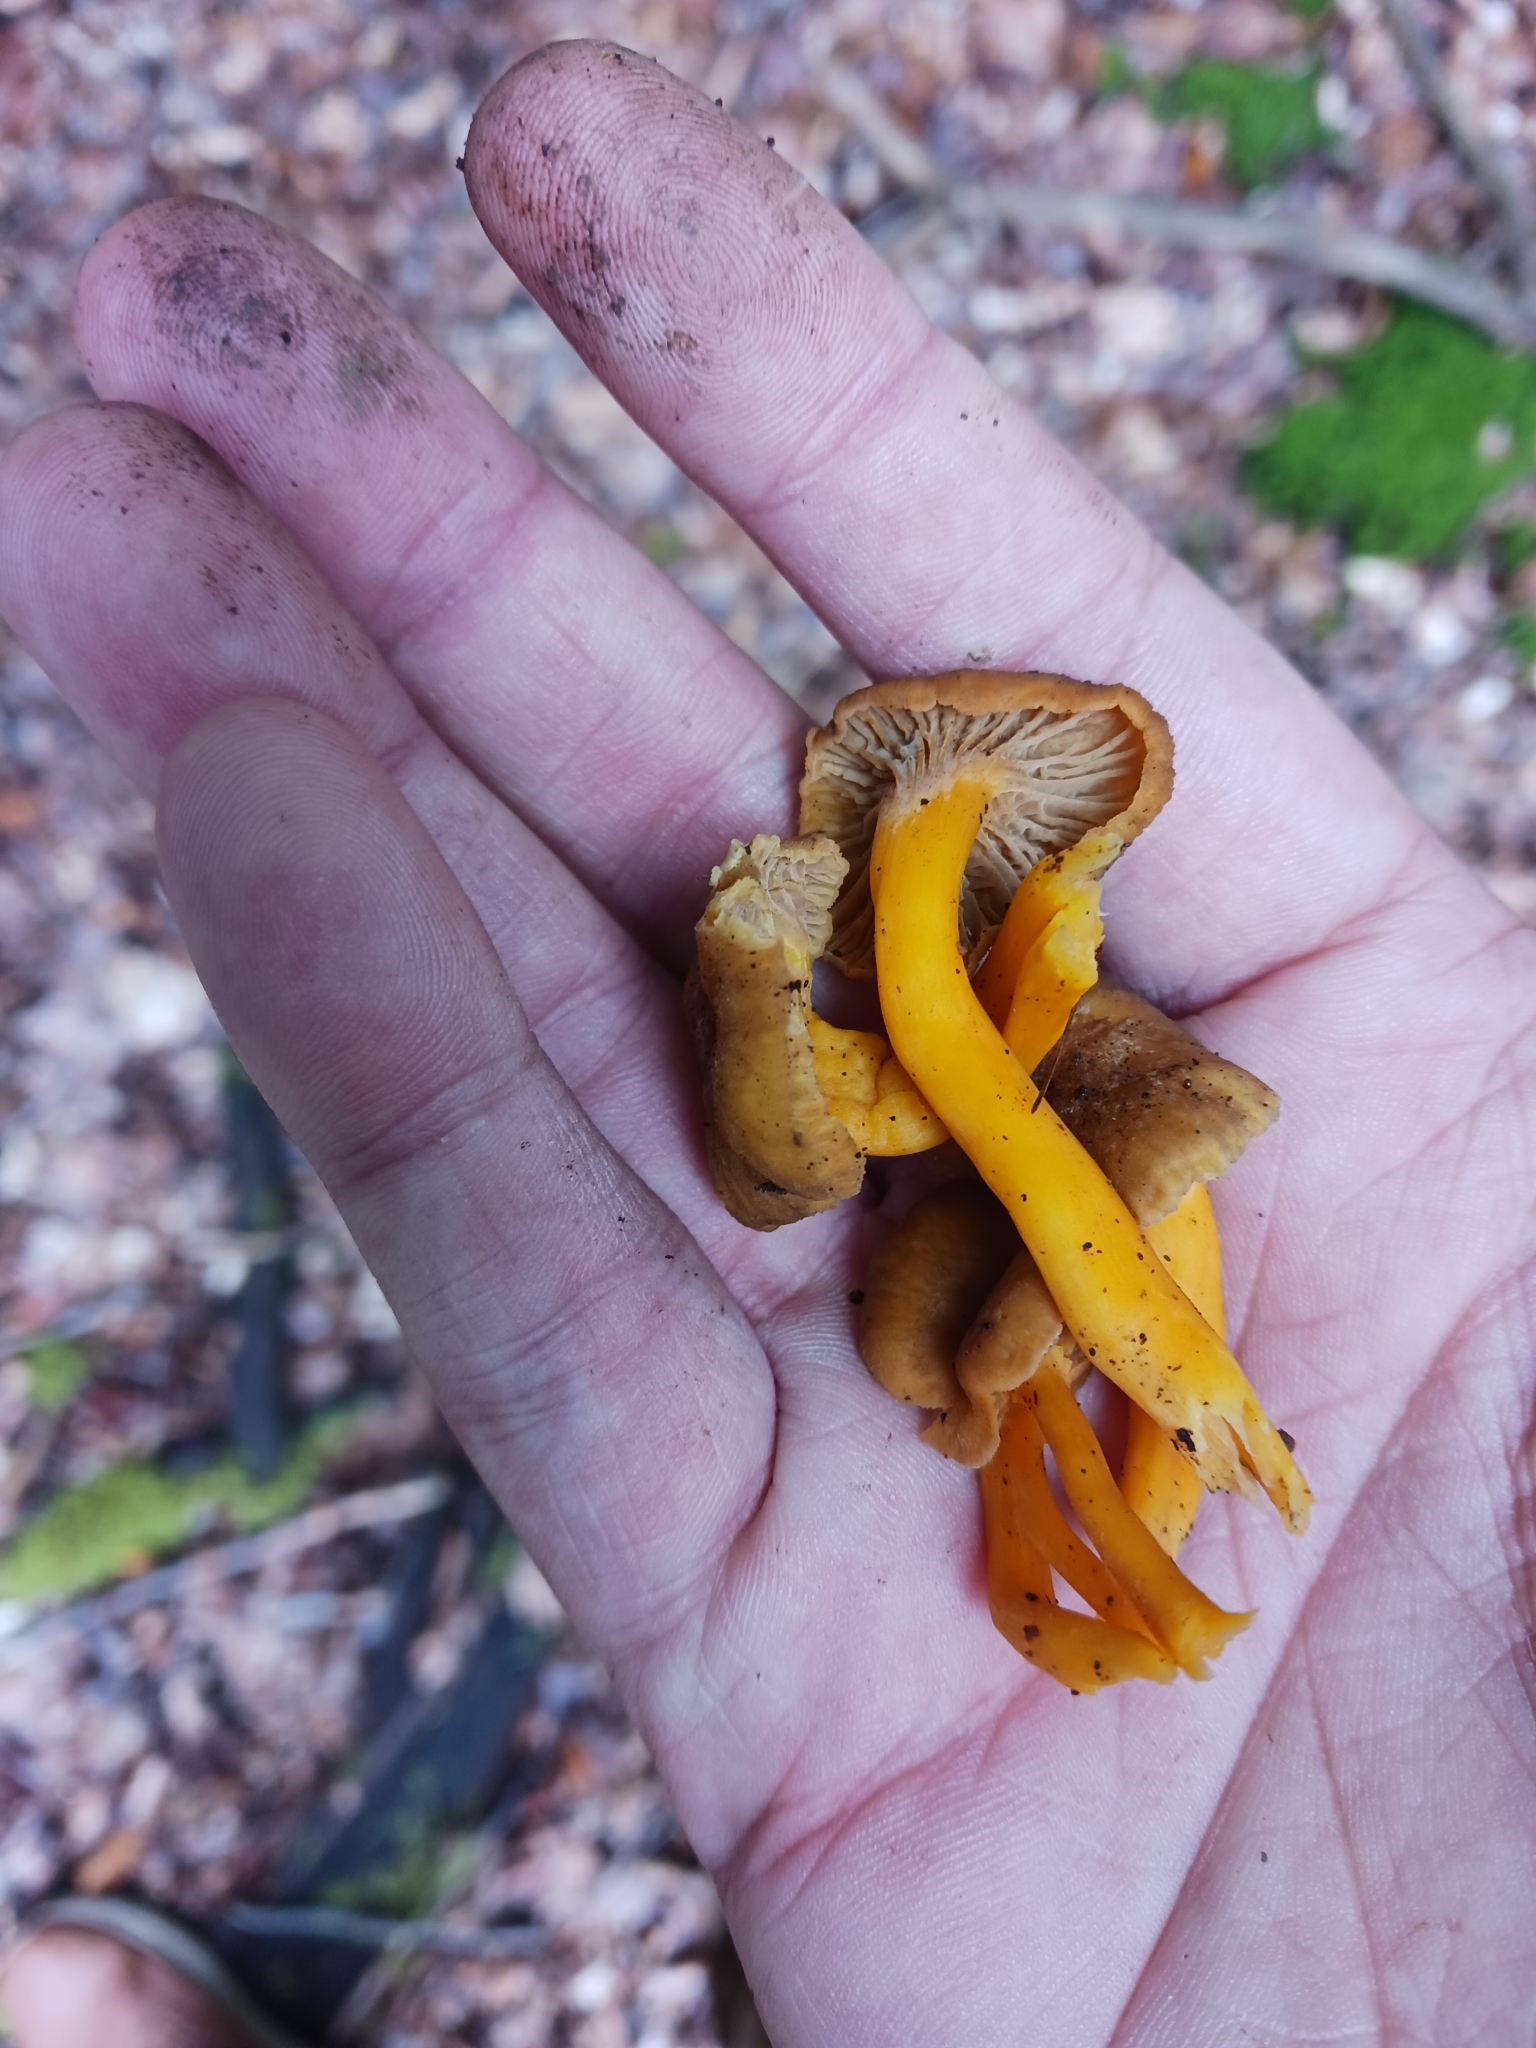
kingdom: Fungi
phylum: Basidiomycota
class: Agaricomycetes
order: Cantharellales
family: Hydnaceae
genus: Craterellus
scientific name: Craterellus tubaeformis
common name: Yellowfoot
